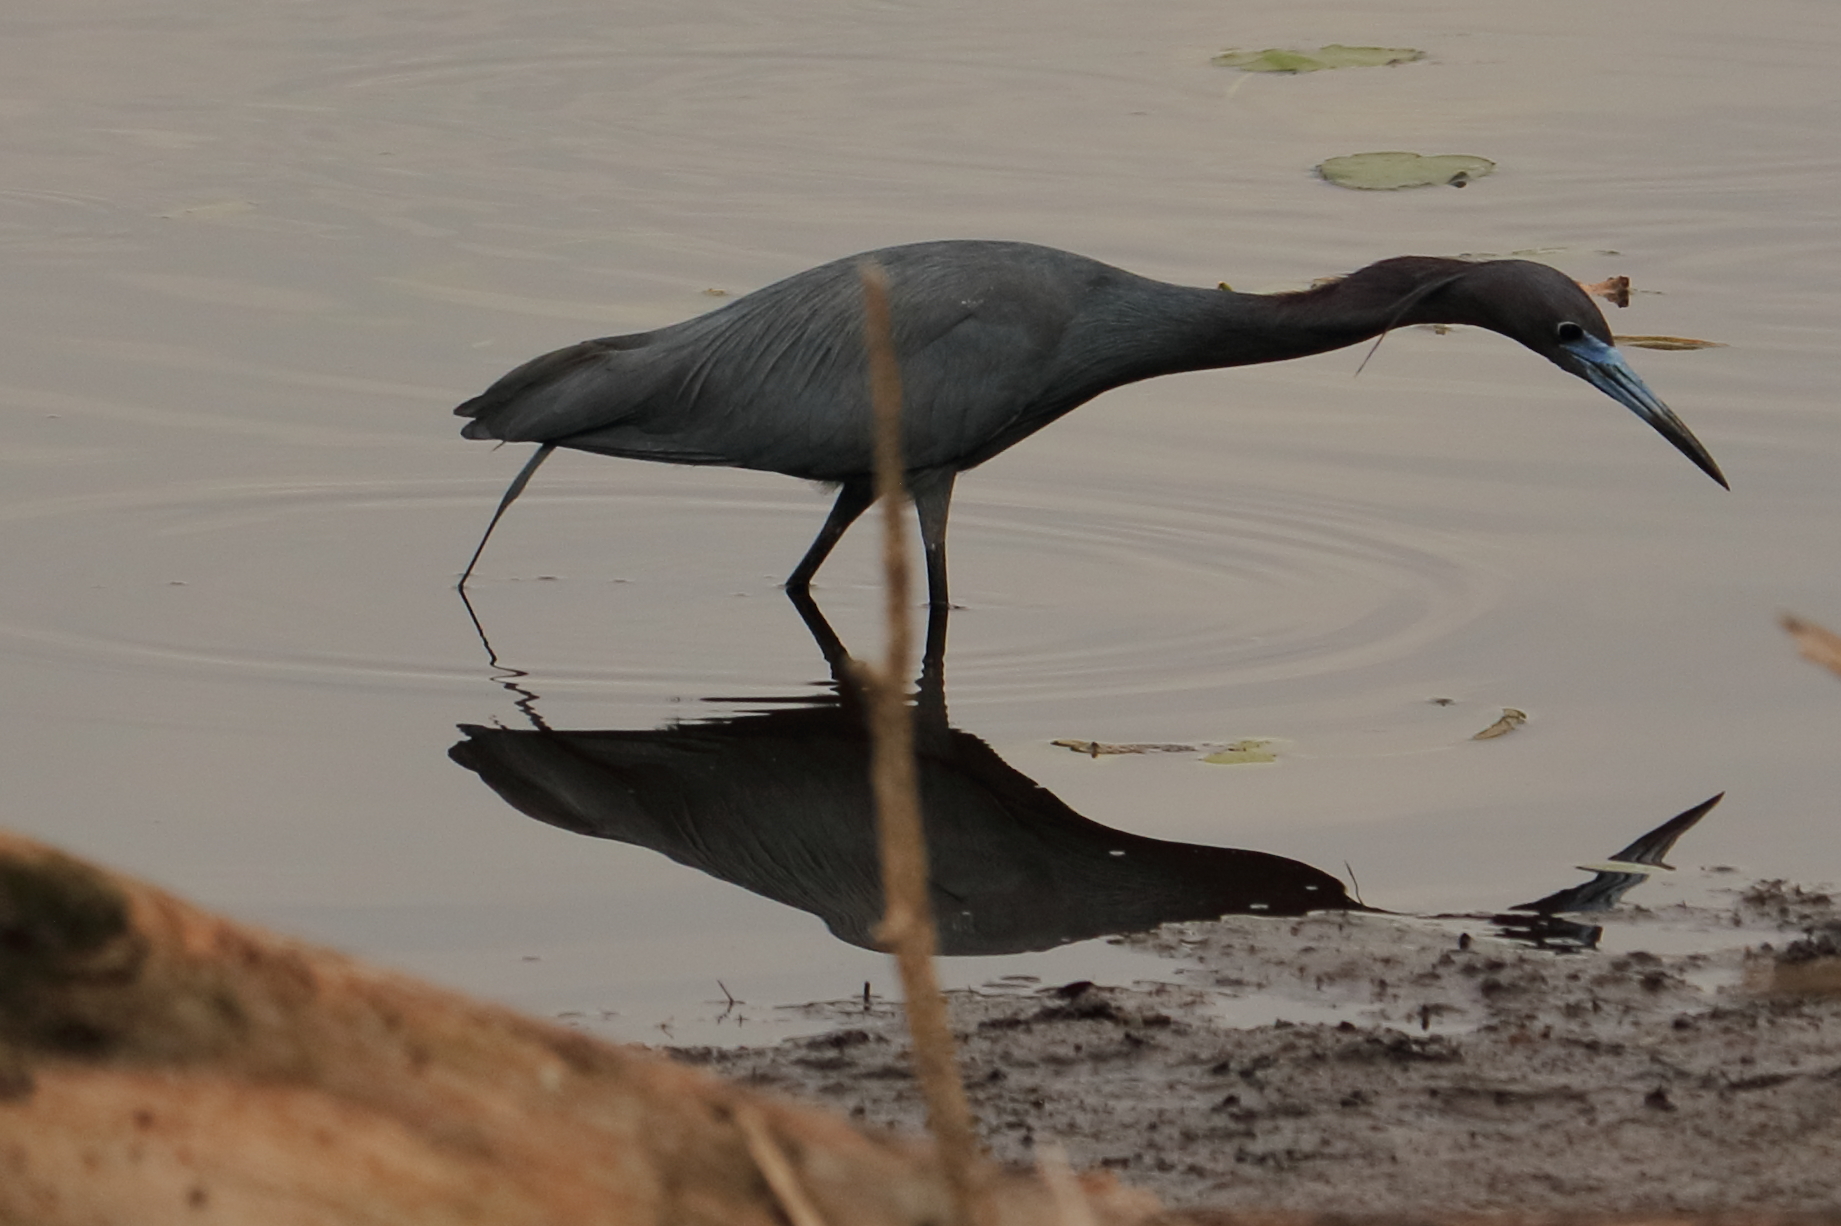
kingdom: Animalia
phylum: Chordata
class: Aves
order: Pelecaniformes
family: Ardeidae
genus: Egretta
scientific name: Egretta caerulea
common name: Little blue heron
